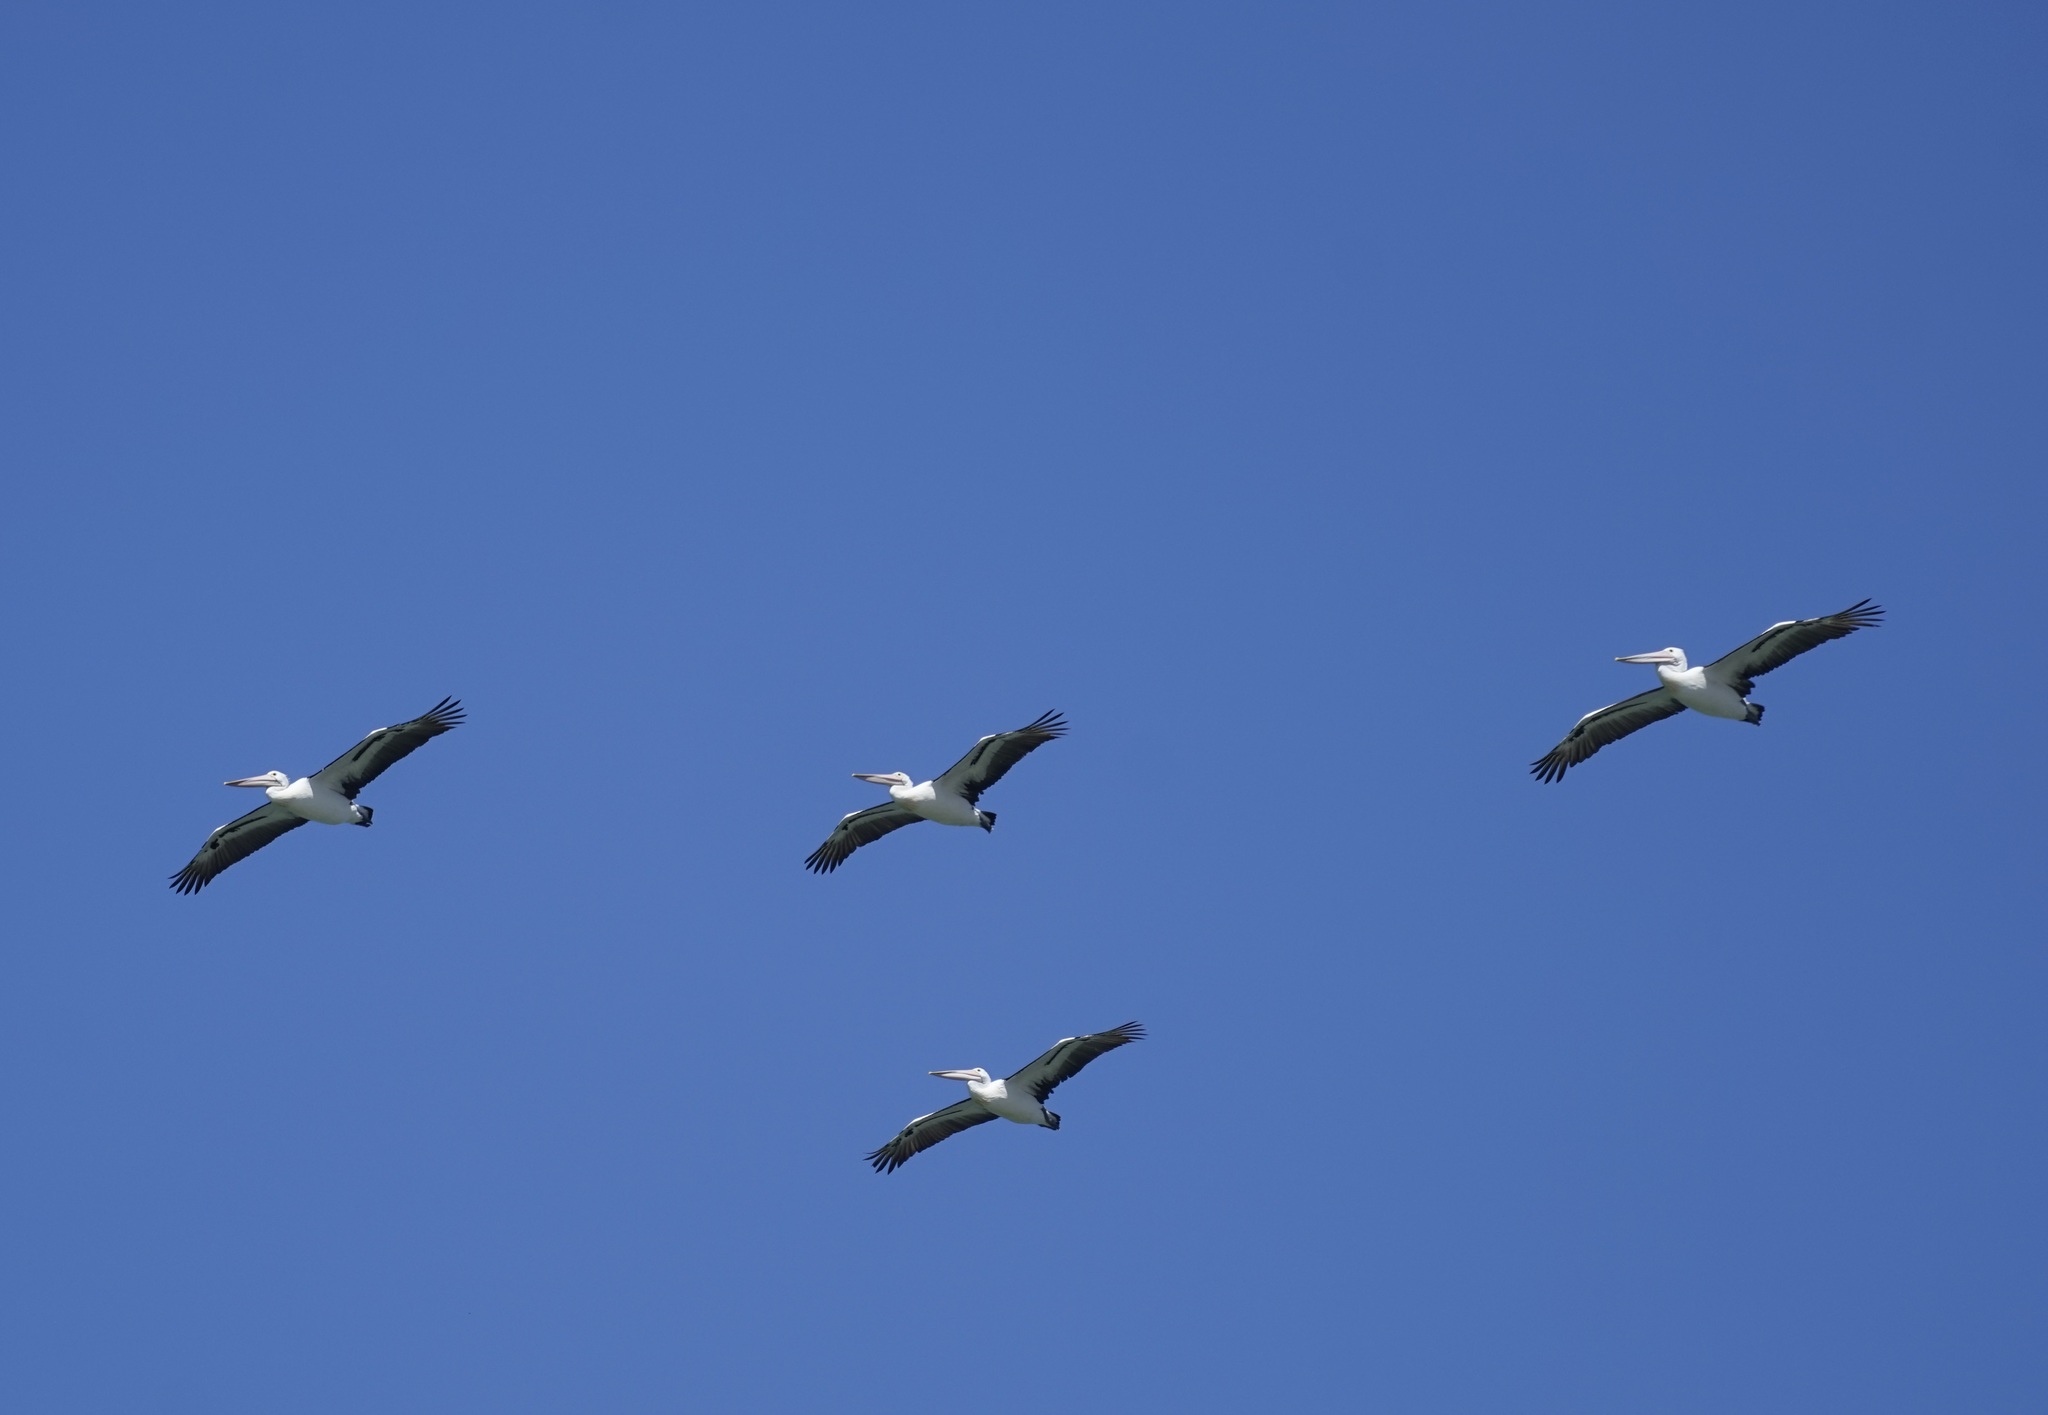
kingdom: Animalia
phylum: Chordata
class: Aves
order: Pelecaniformes
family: Pelecanidae
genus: Pelecanus
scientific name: Pelecanus conspicillatus
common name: Australian pelican
